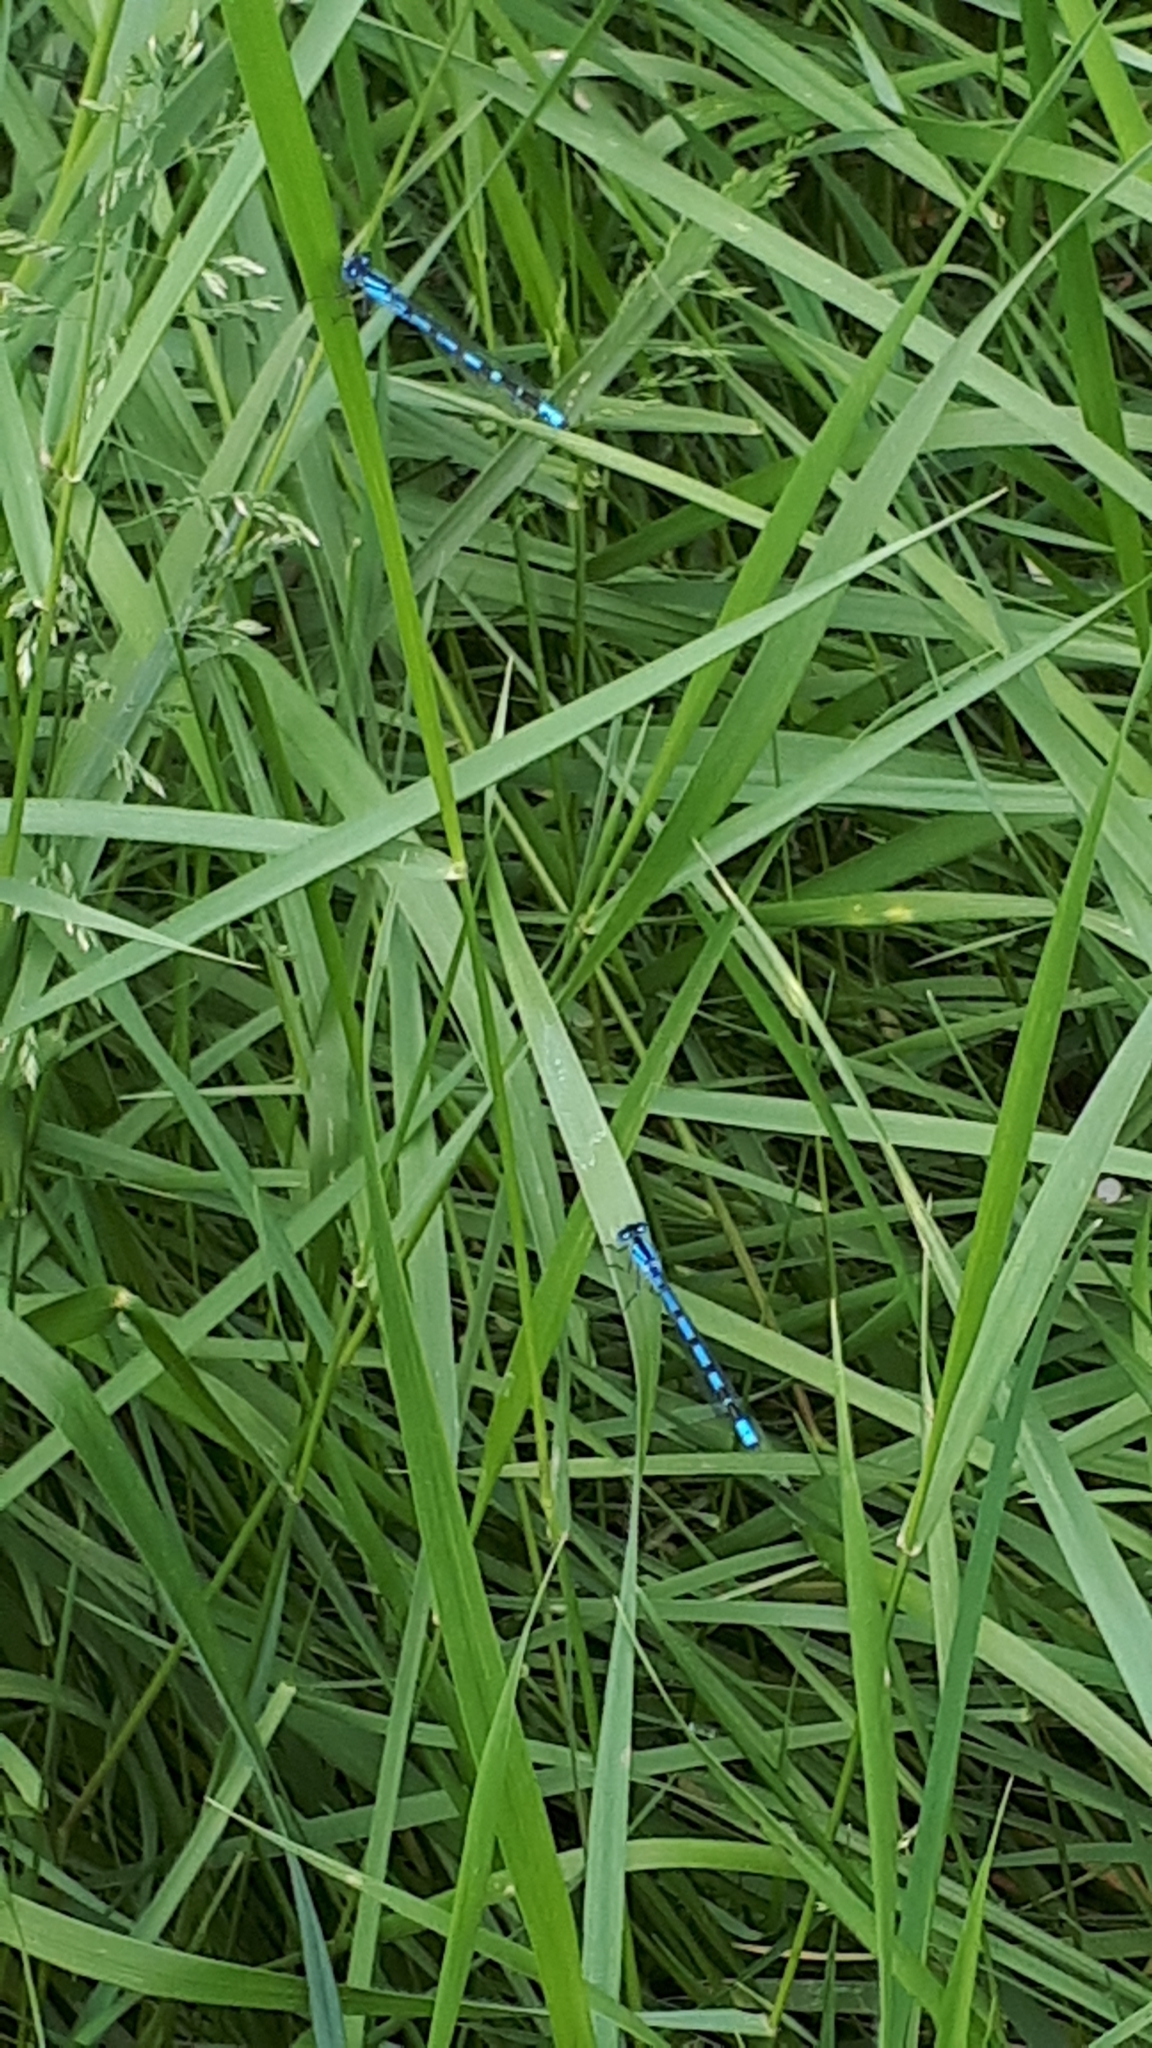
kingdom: Animalia
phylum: Arthropoda
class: Insecta
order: Odonata
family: Coenagrionidae
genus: Enallagma
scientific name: Enallagma cyathigerum
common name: Common blue damselfly
